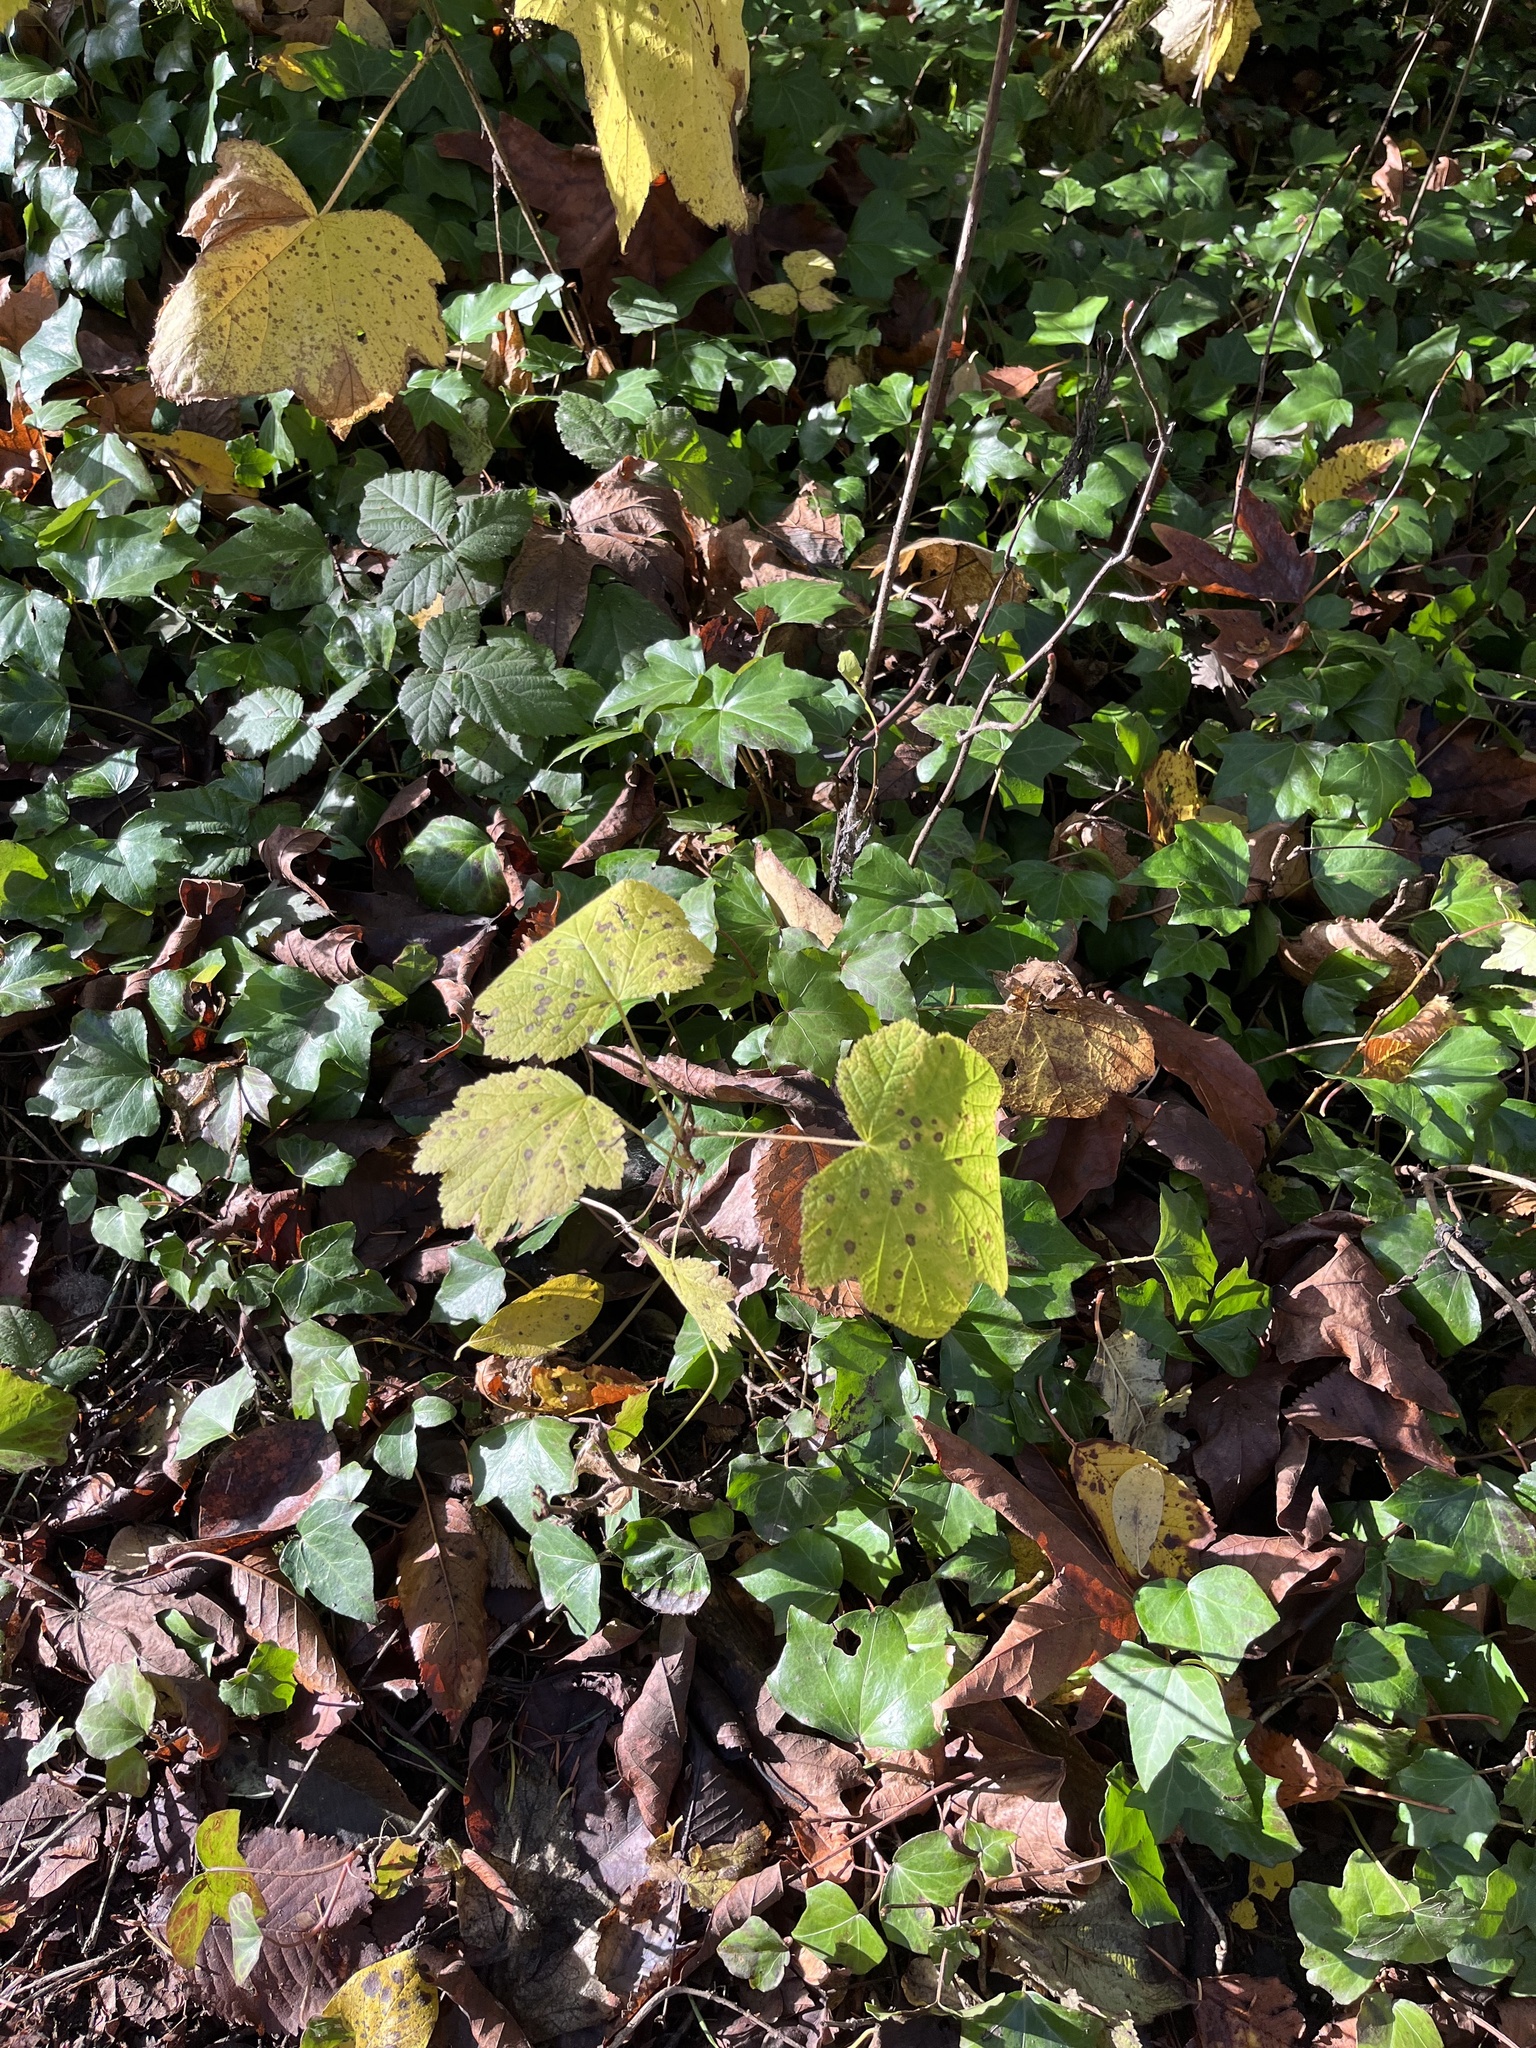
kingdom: Plantae
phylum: Tracheophyta
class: Magnoliopsida
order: Rosales
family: Rosaceae
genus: Rubus
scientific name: Rubus parviflorus
